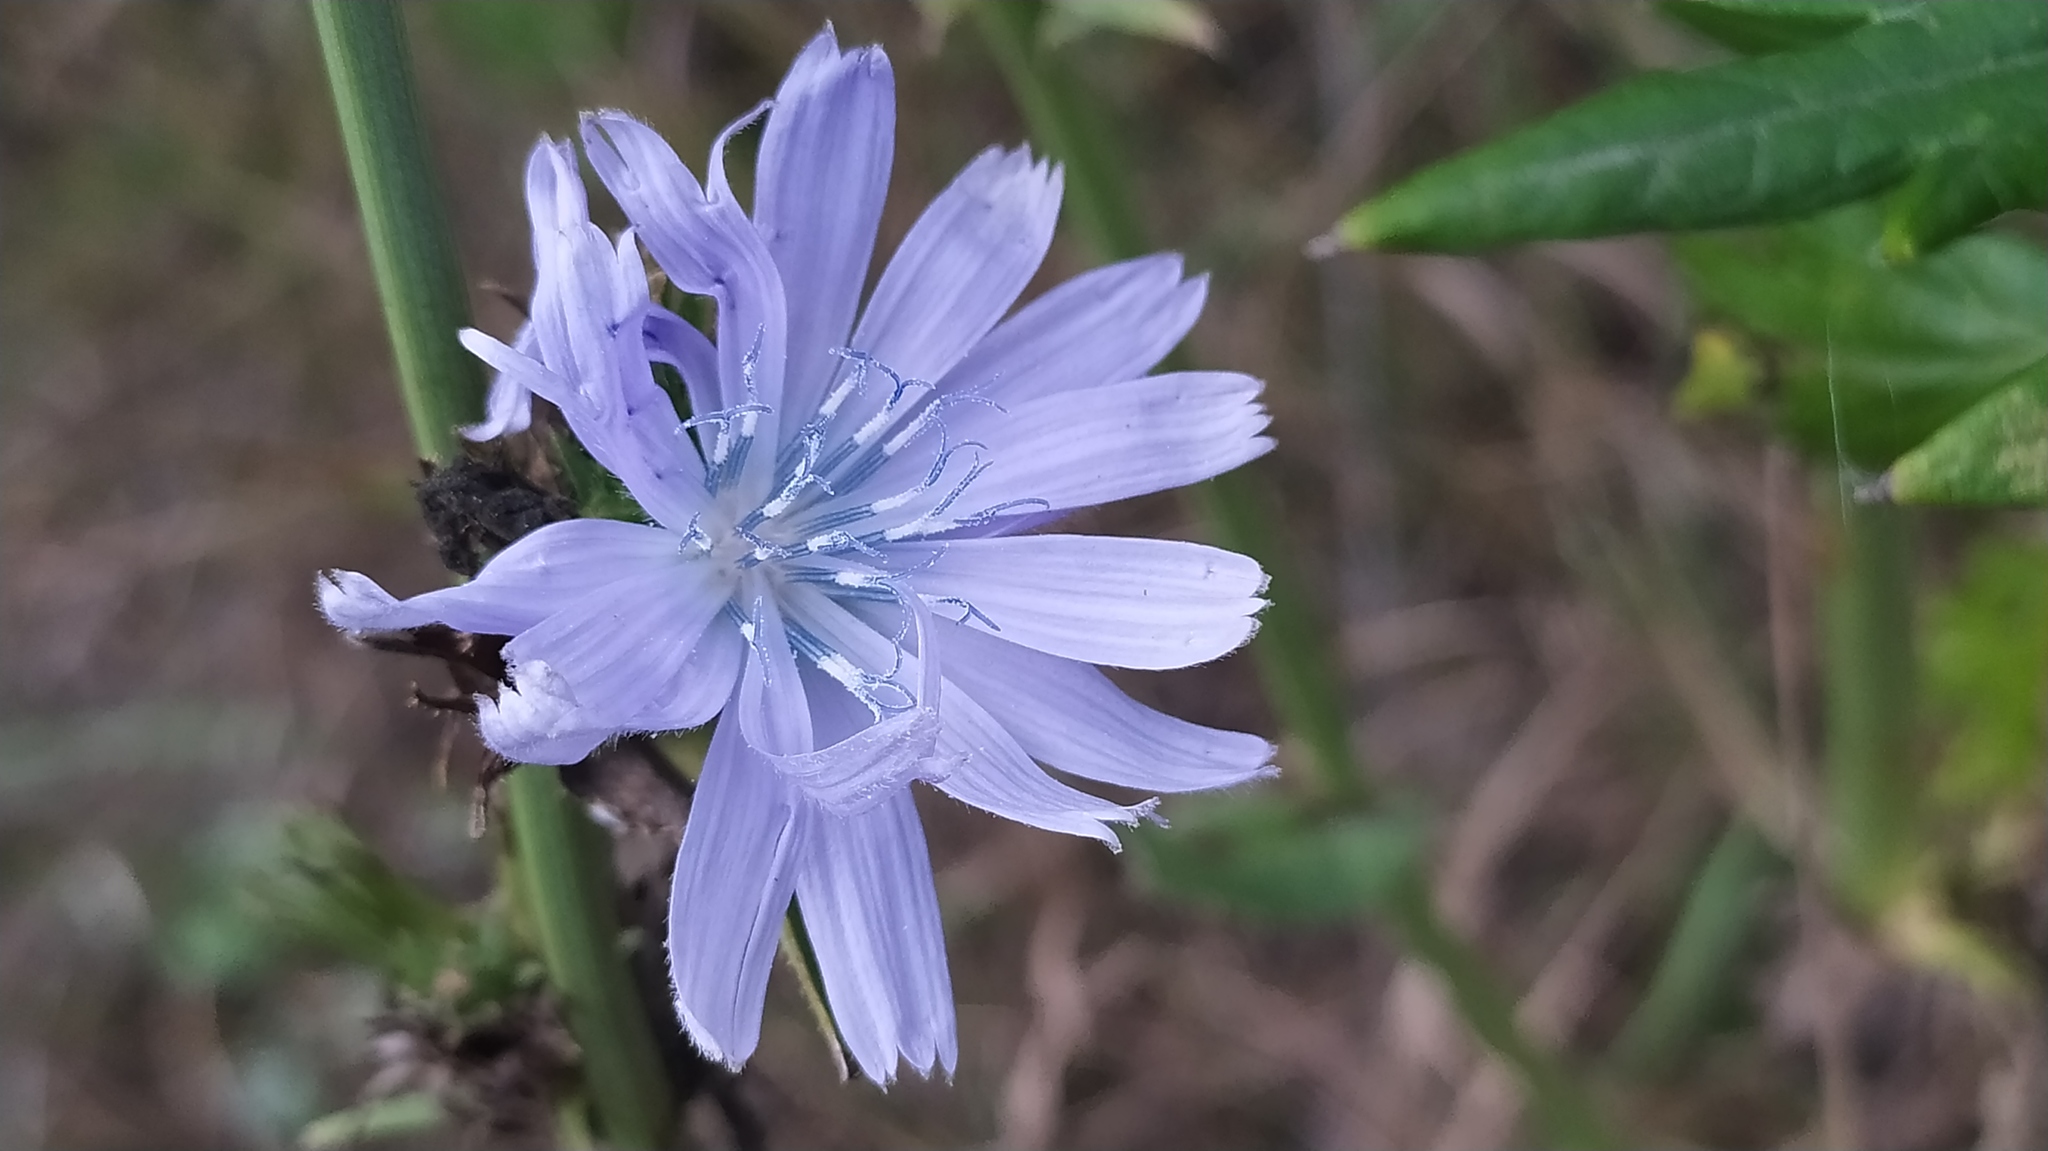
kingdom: Plantae
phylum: Tracheophyta
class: Magnoliopsida
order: Asterales
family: Asteraceae
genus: Cichorium
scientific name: Cichorium intybus
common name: Chicory
